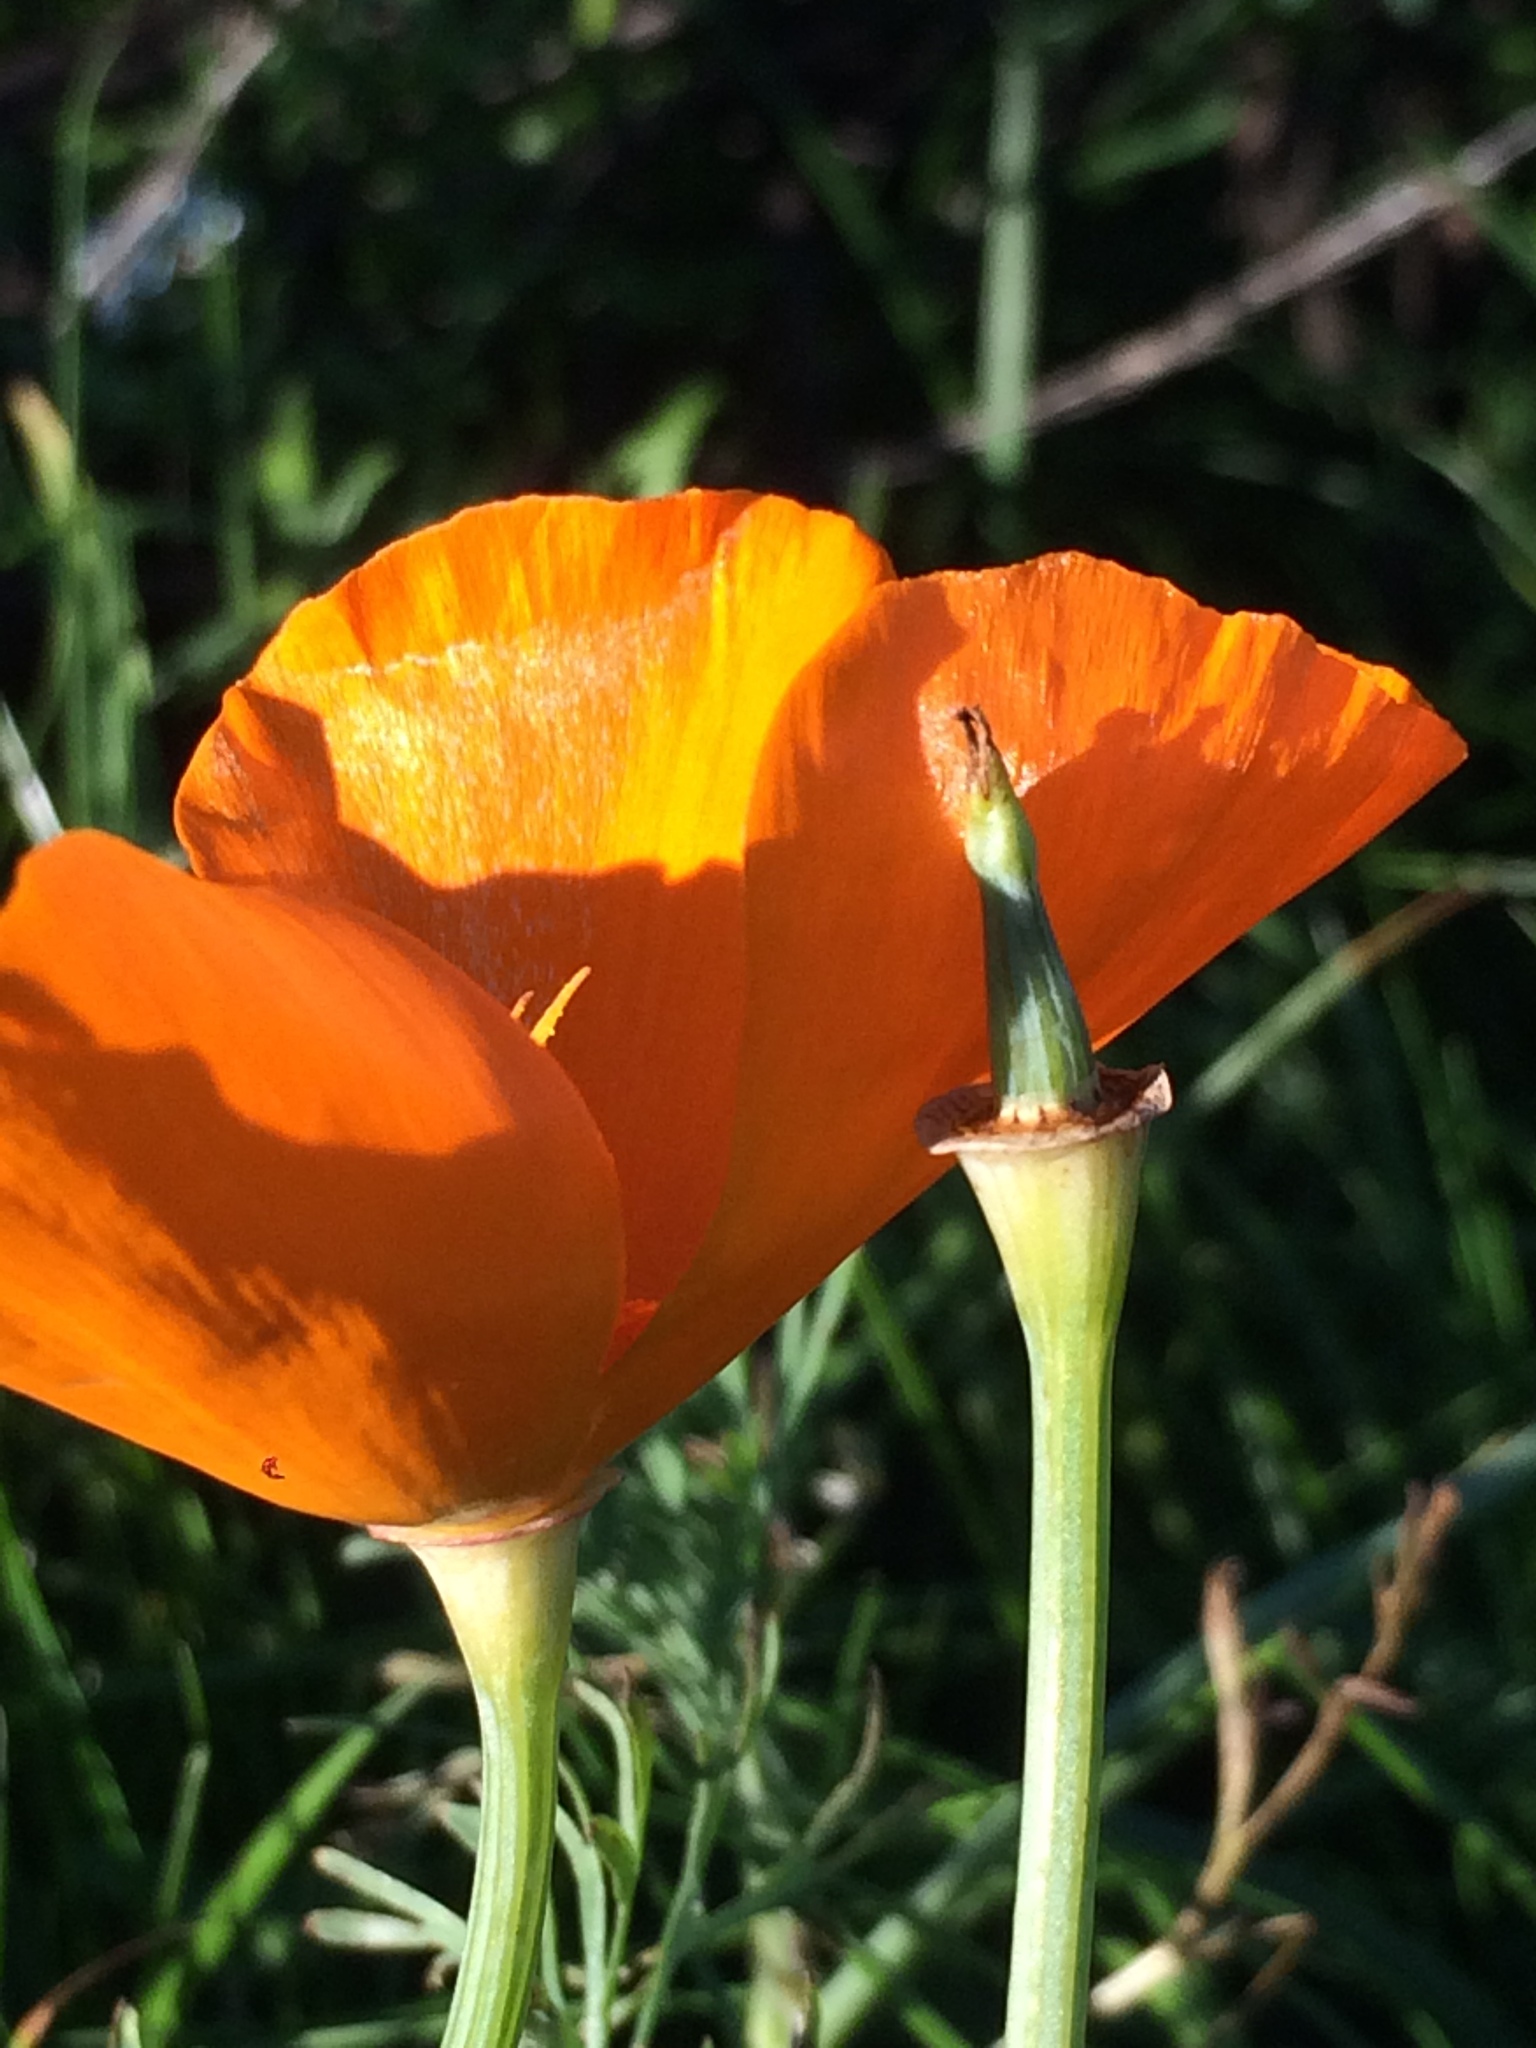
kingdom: Plantae
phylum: Tracheophyta
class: Magnoliopsida
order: Ranunculales
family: Papaveraceae
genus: Eschscholzia
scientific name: Eschscholzia californica
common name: California poppy
